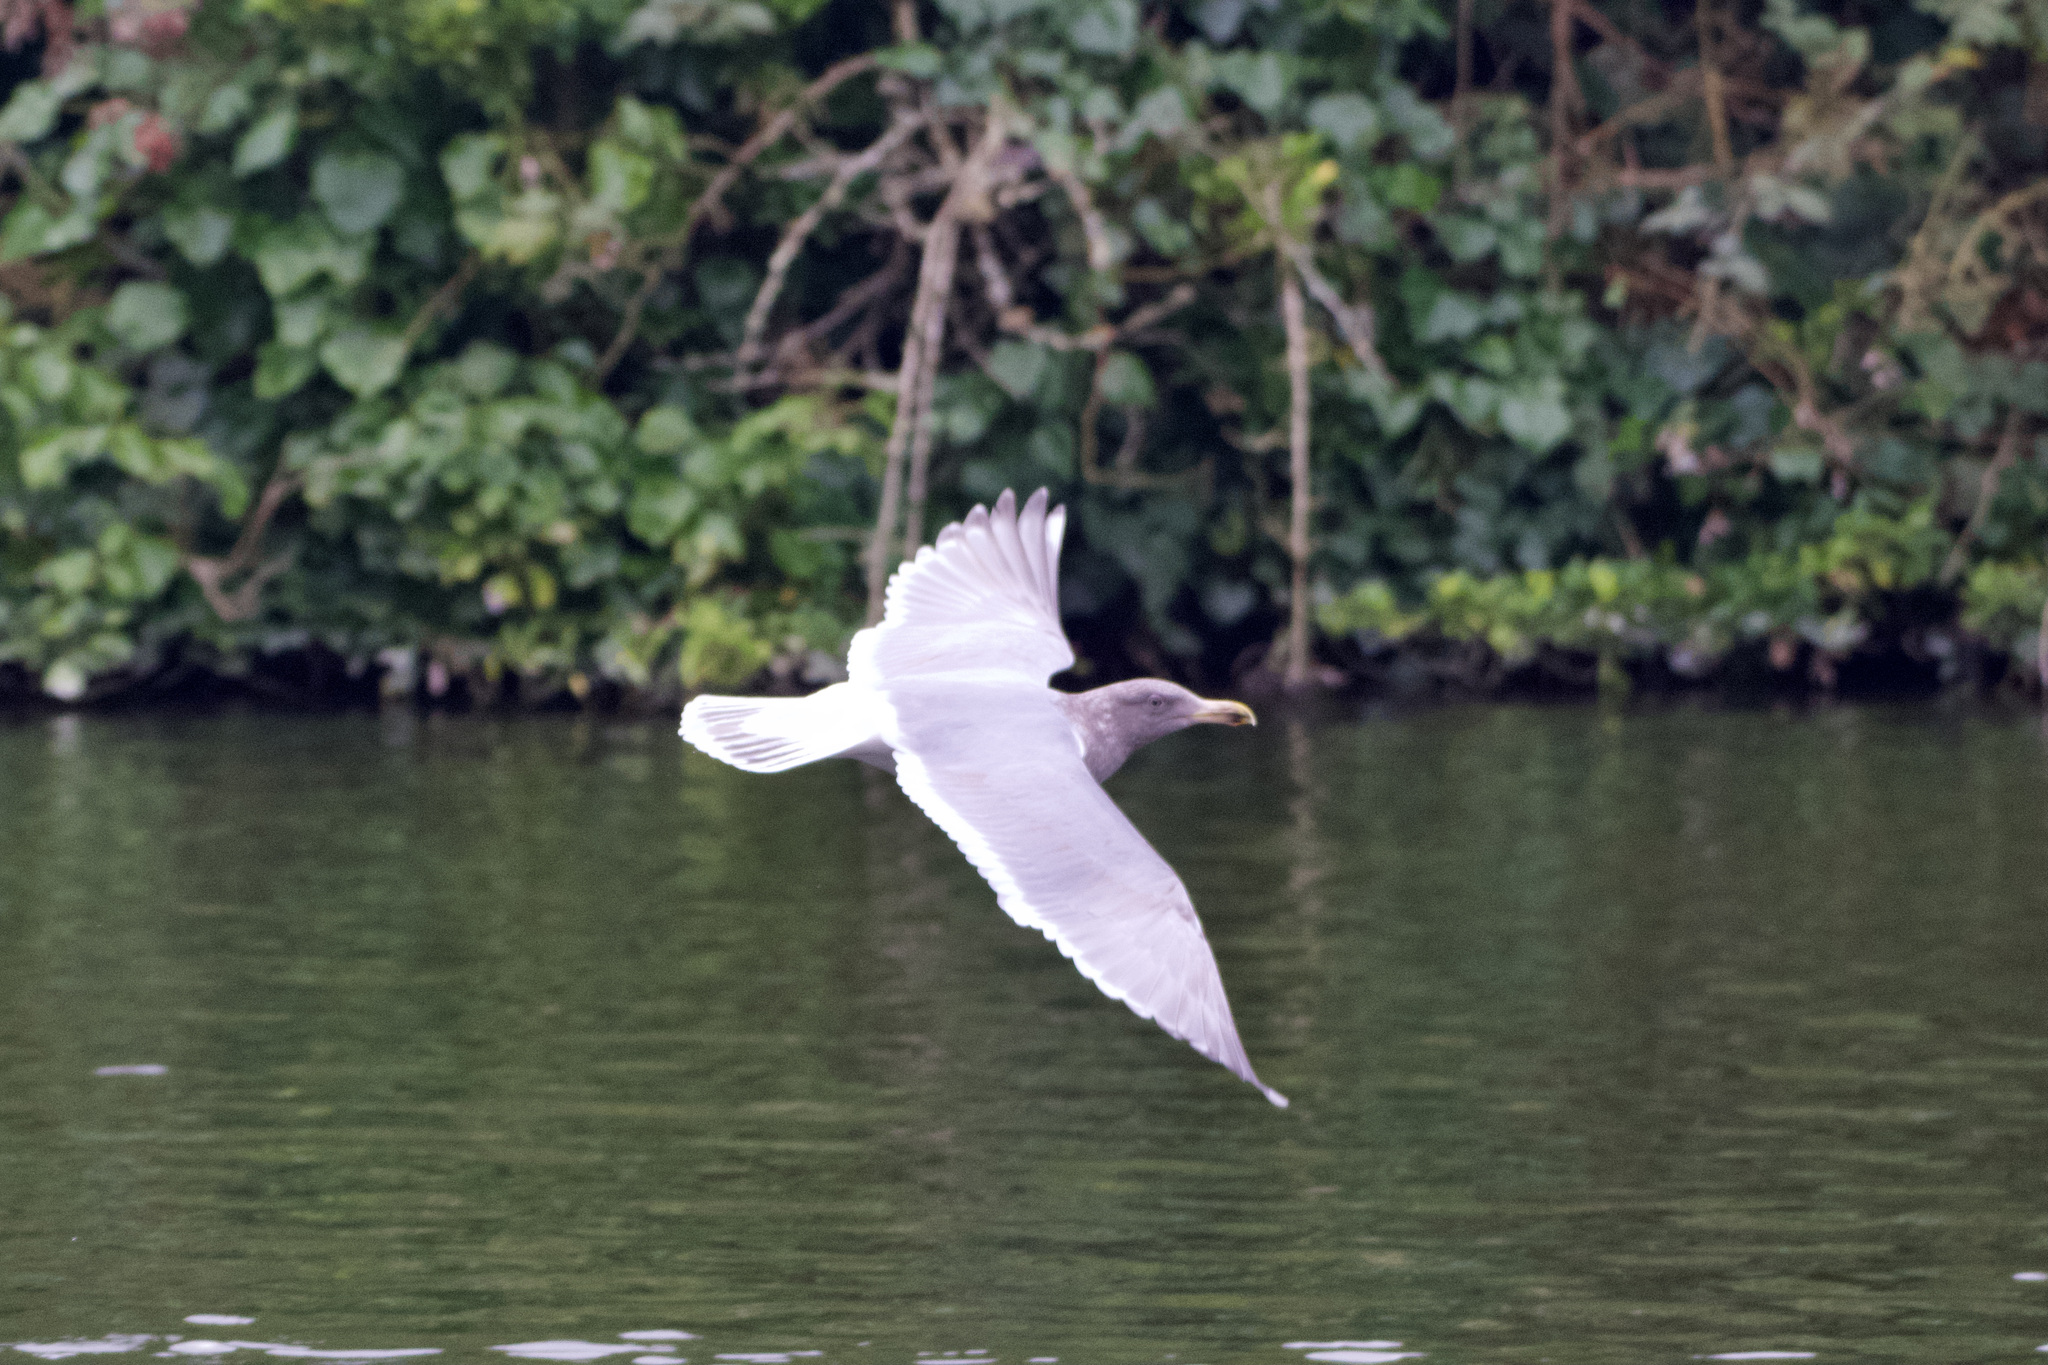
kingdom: Animalia
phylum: Chordata
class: Aves
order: Charadriiformes
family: Laridae
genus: Larus
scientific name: Larus
